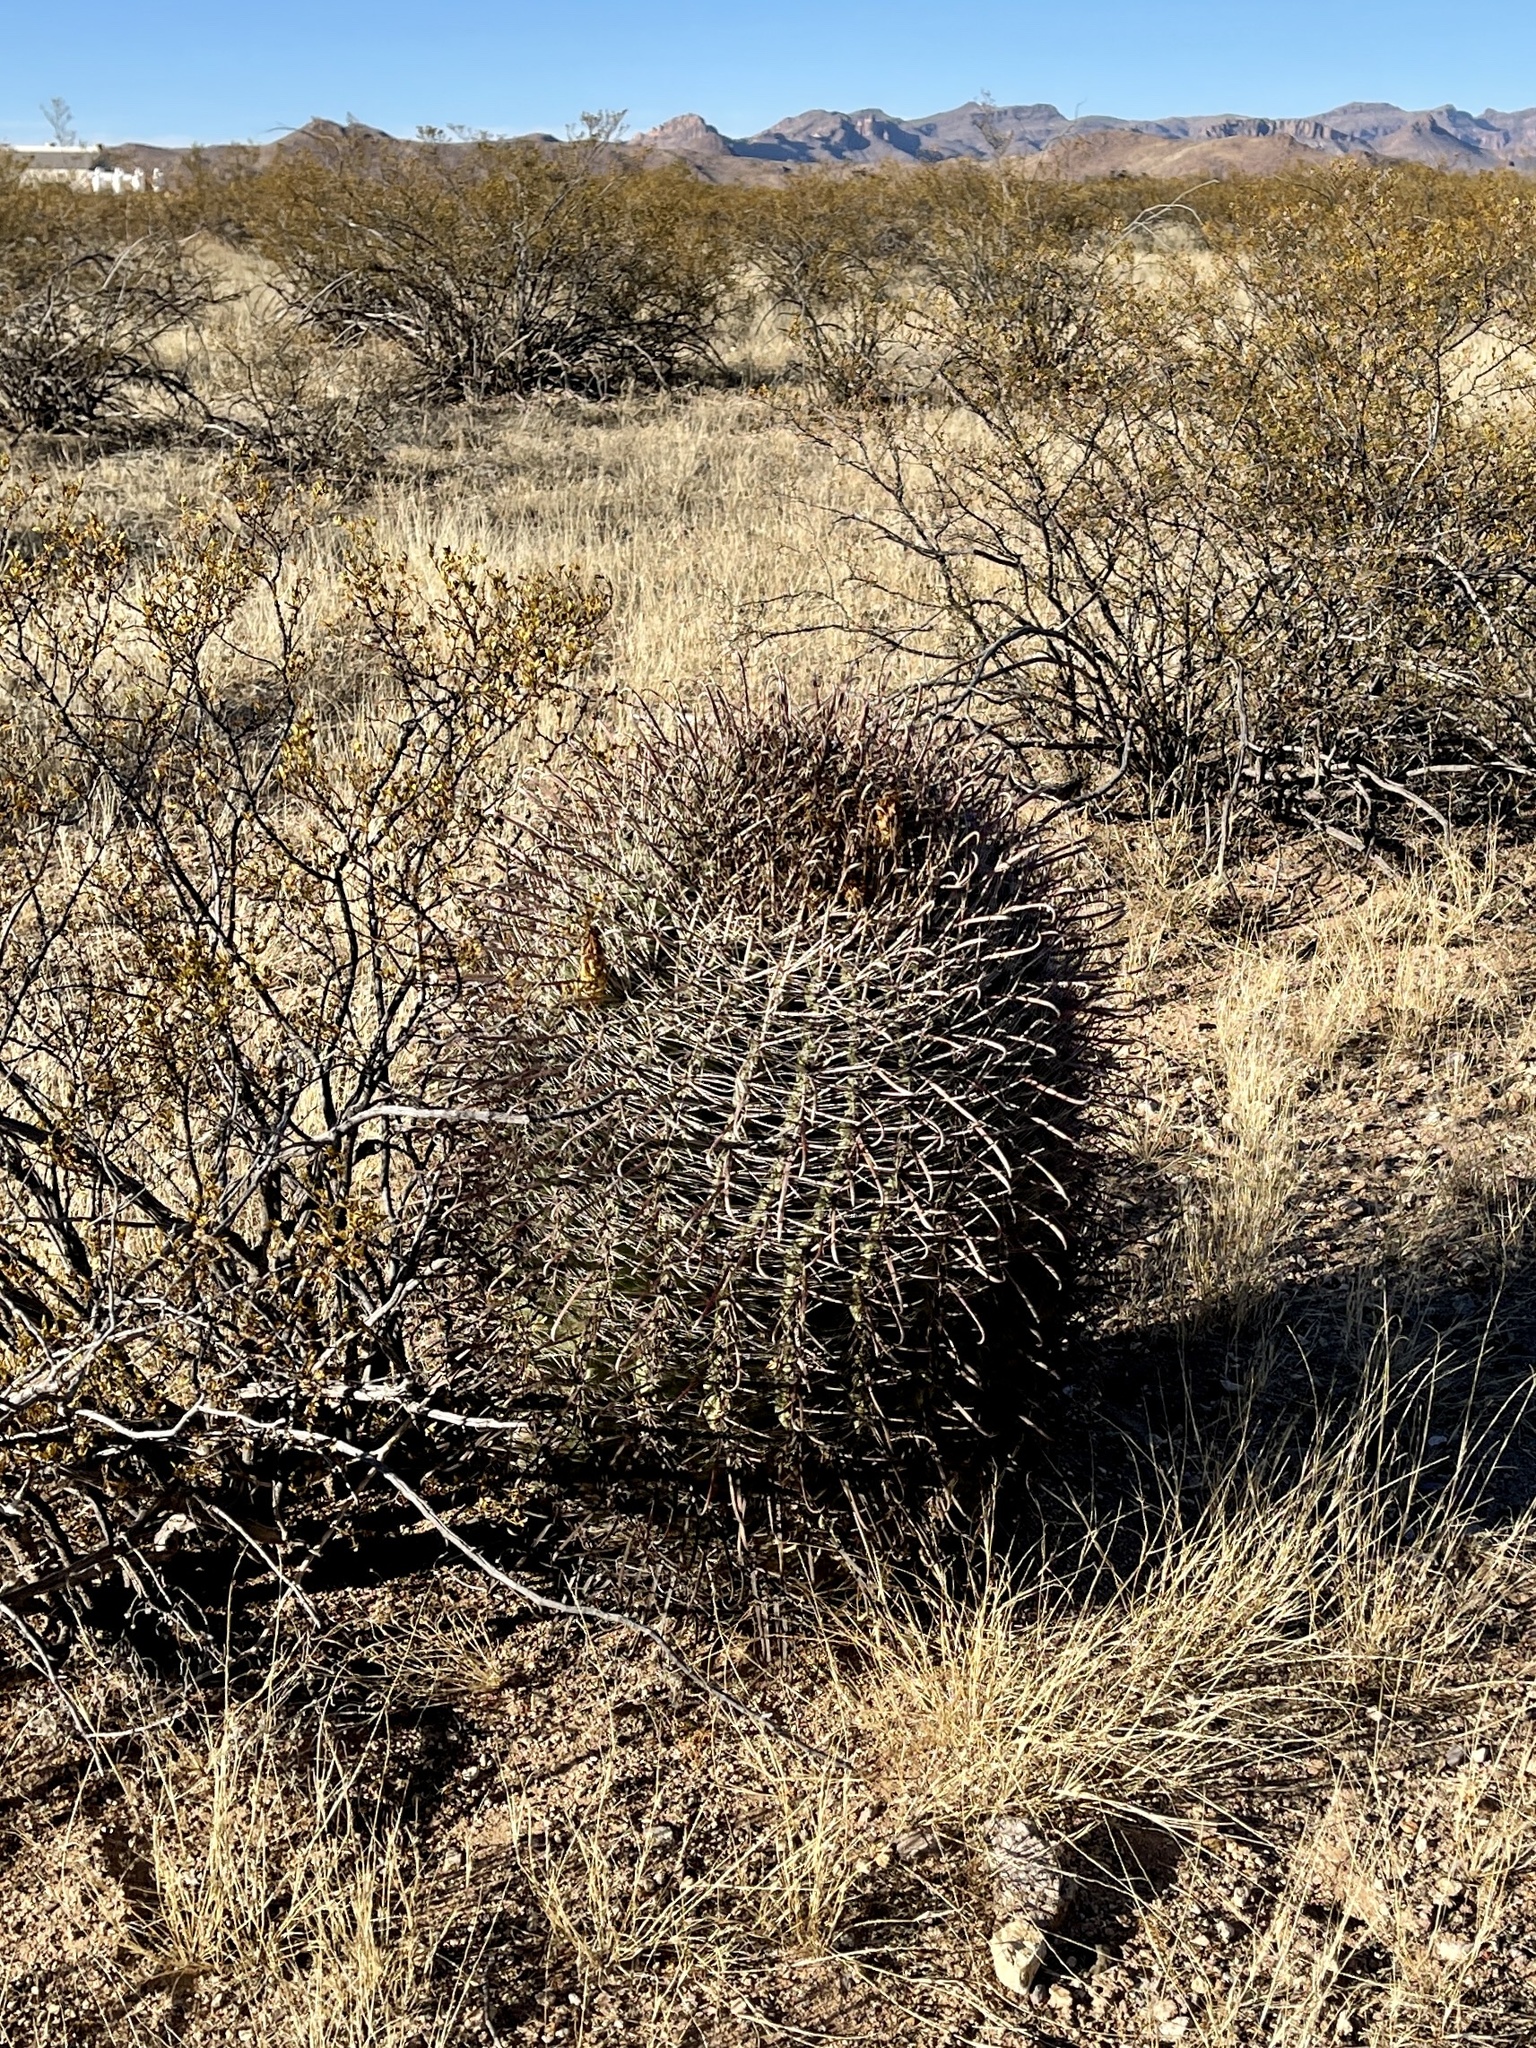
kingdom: Plantae
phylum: Tracheophyta
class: Magnoliopsida
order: Caryophyllales
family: Cactaceae
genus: Ferocactus
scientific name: Ferocactus wislizeni
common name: Candy barrel cactus
